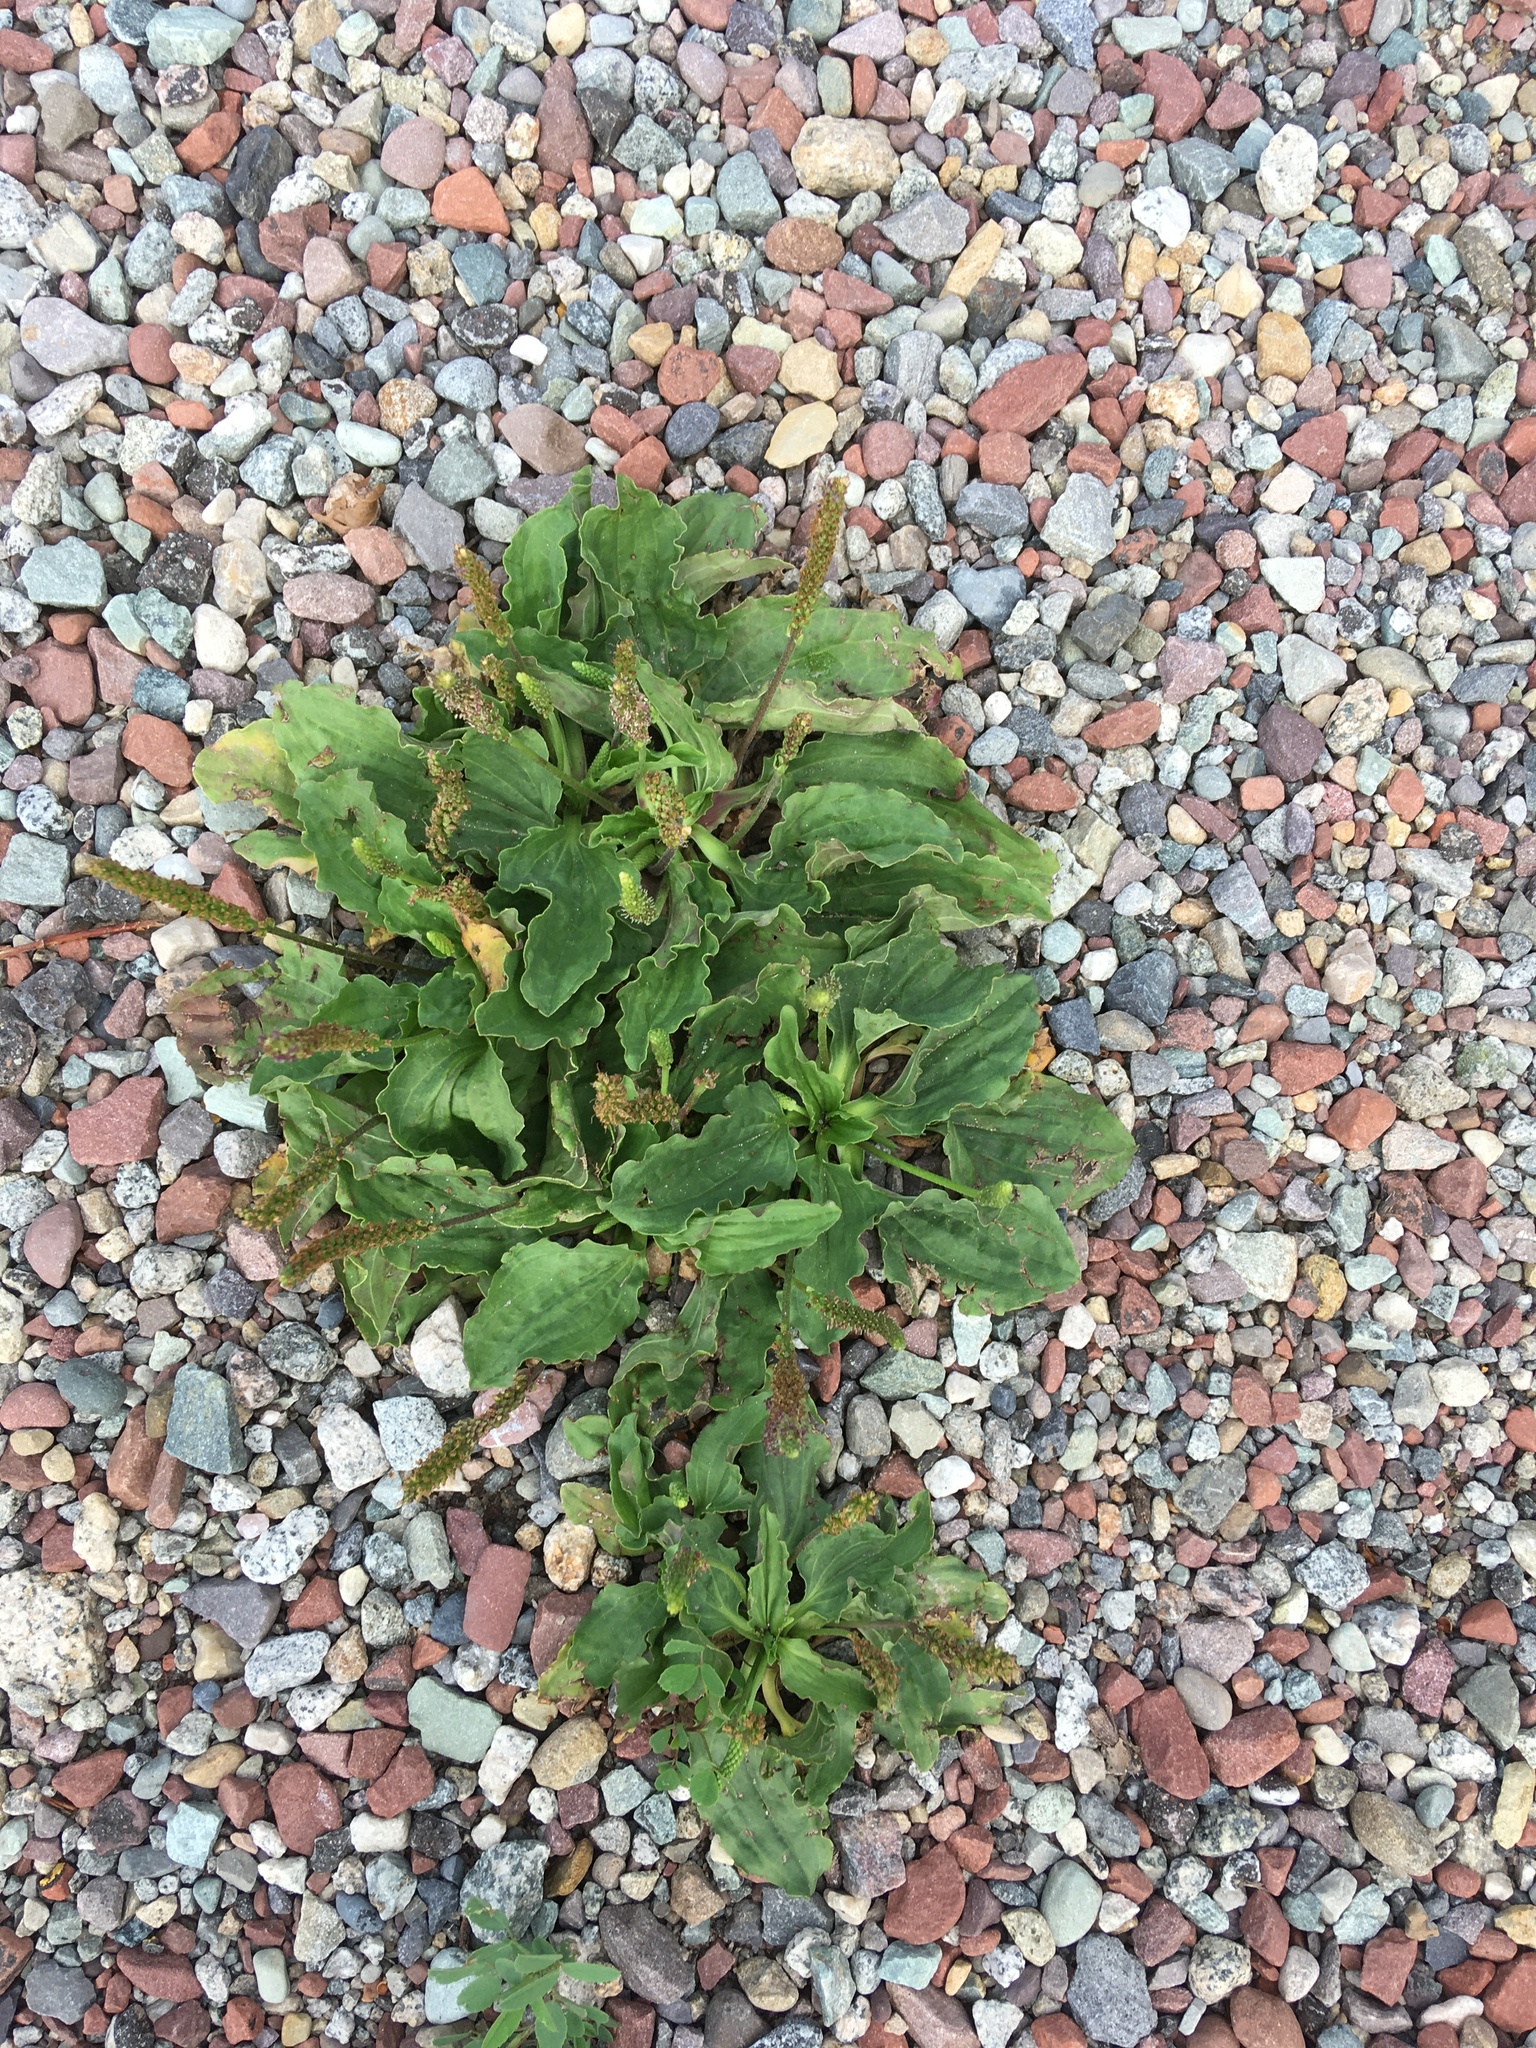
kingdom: Plantae
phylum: Tracheophyta
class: Magnoliopsida
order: Lamiales
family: Plantaginaceae
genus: Plantago
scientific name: Plantago major
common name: Common plantain
